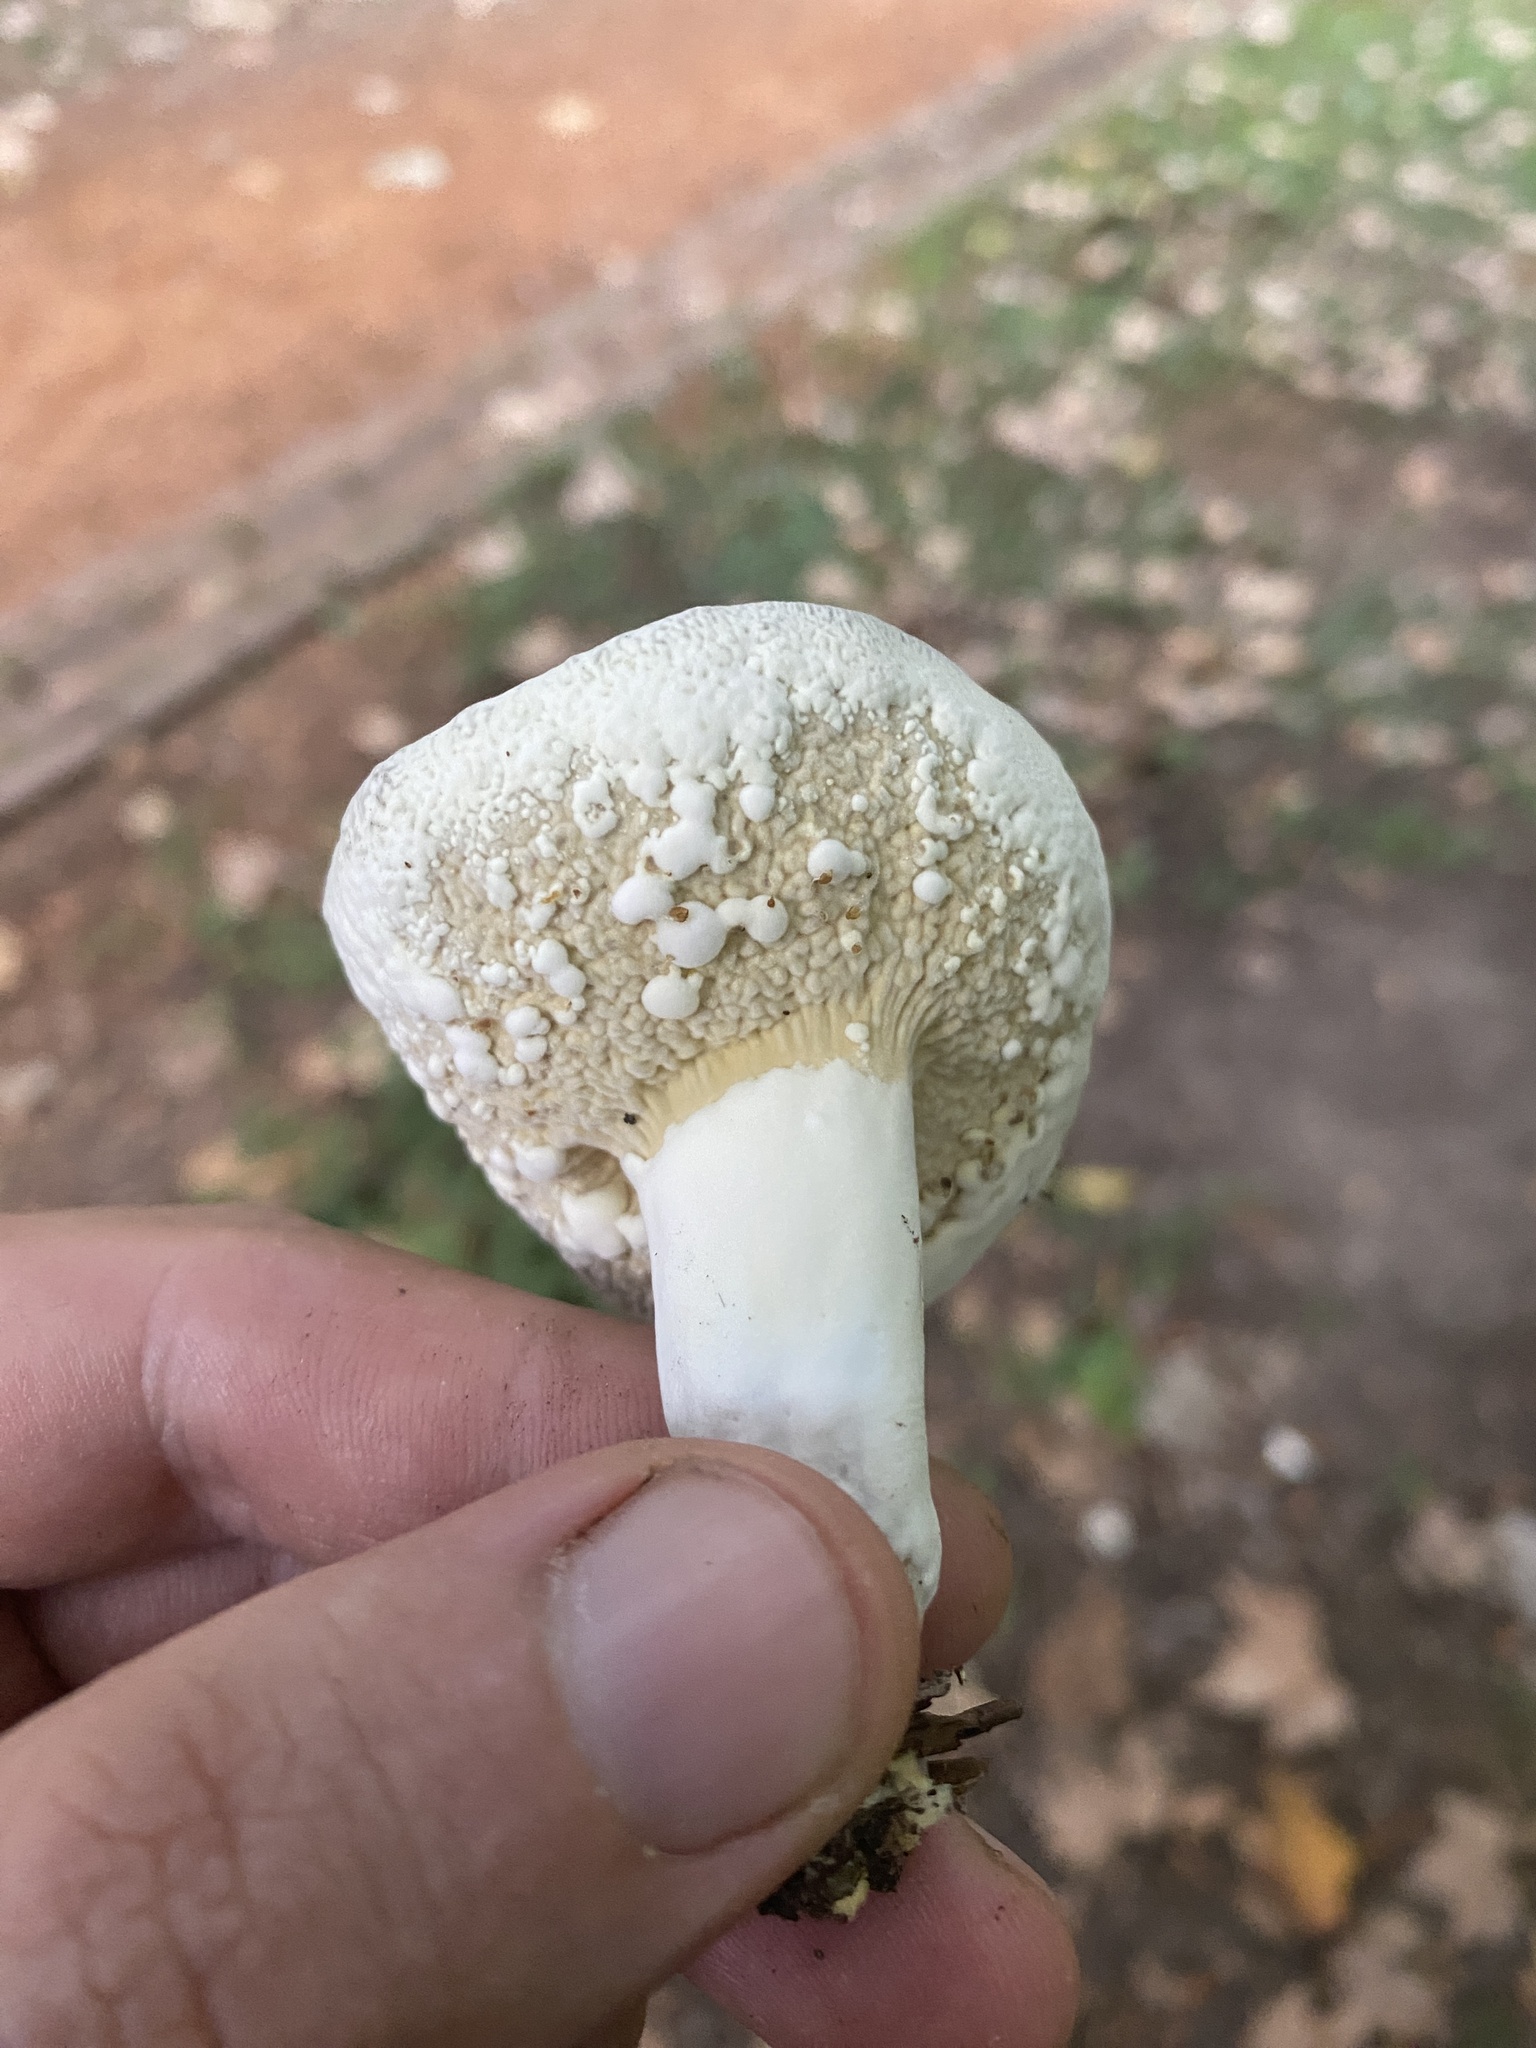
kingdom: Fungi
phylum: Ascomycota
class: Sordariomycetes
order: Hypocreales
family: Hypocreaceae
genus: Hypomyces
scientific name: Hypomyces chrysospermus
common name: Bolete mould
